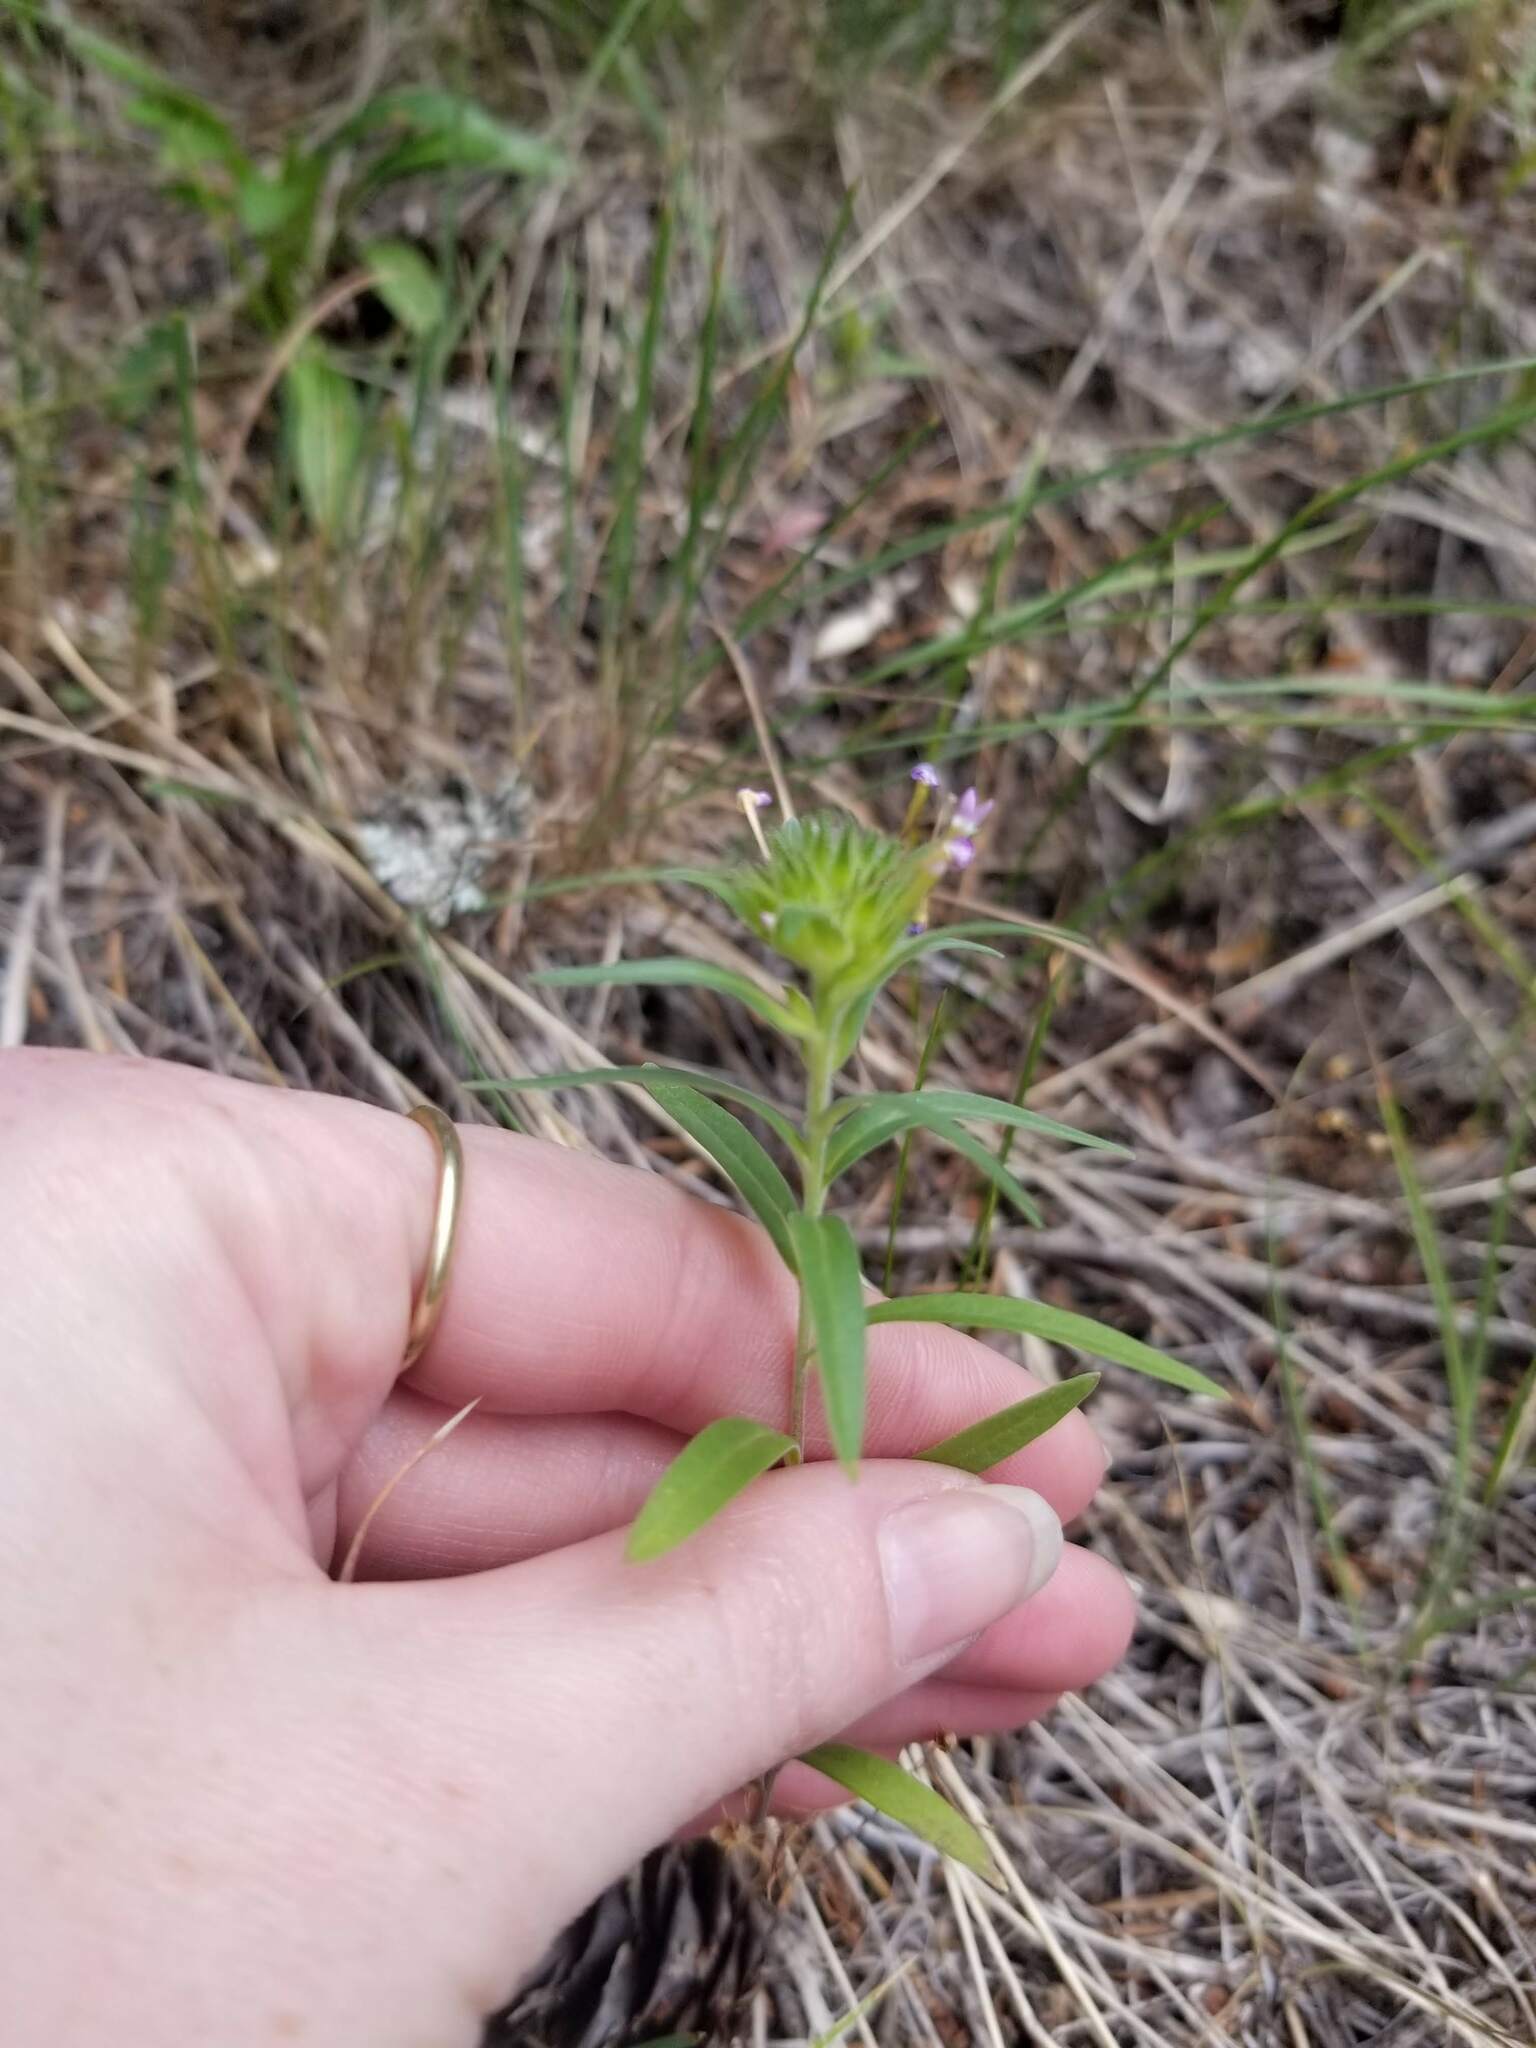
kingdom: Plantae
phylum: Tracheophyta
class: Magnoliopsida
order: Ericales
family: Polemoniaceae
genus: Collomia
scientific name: Collomia linearis
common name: Tiny trumpet
